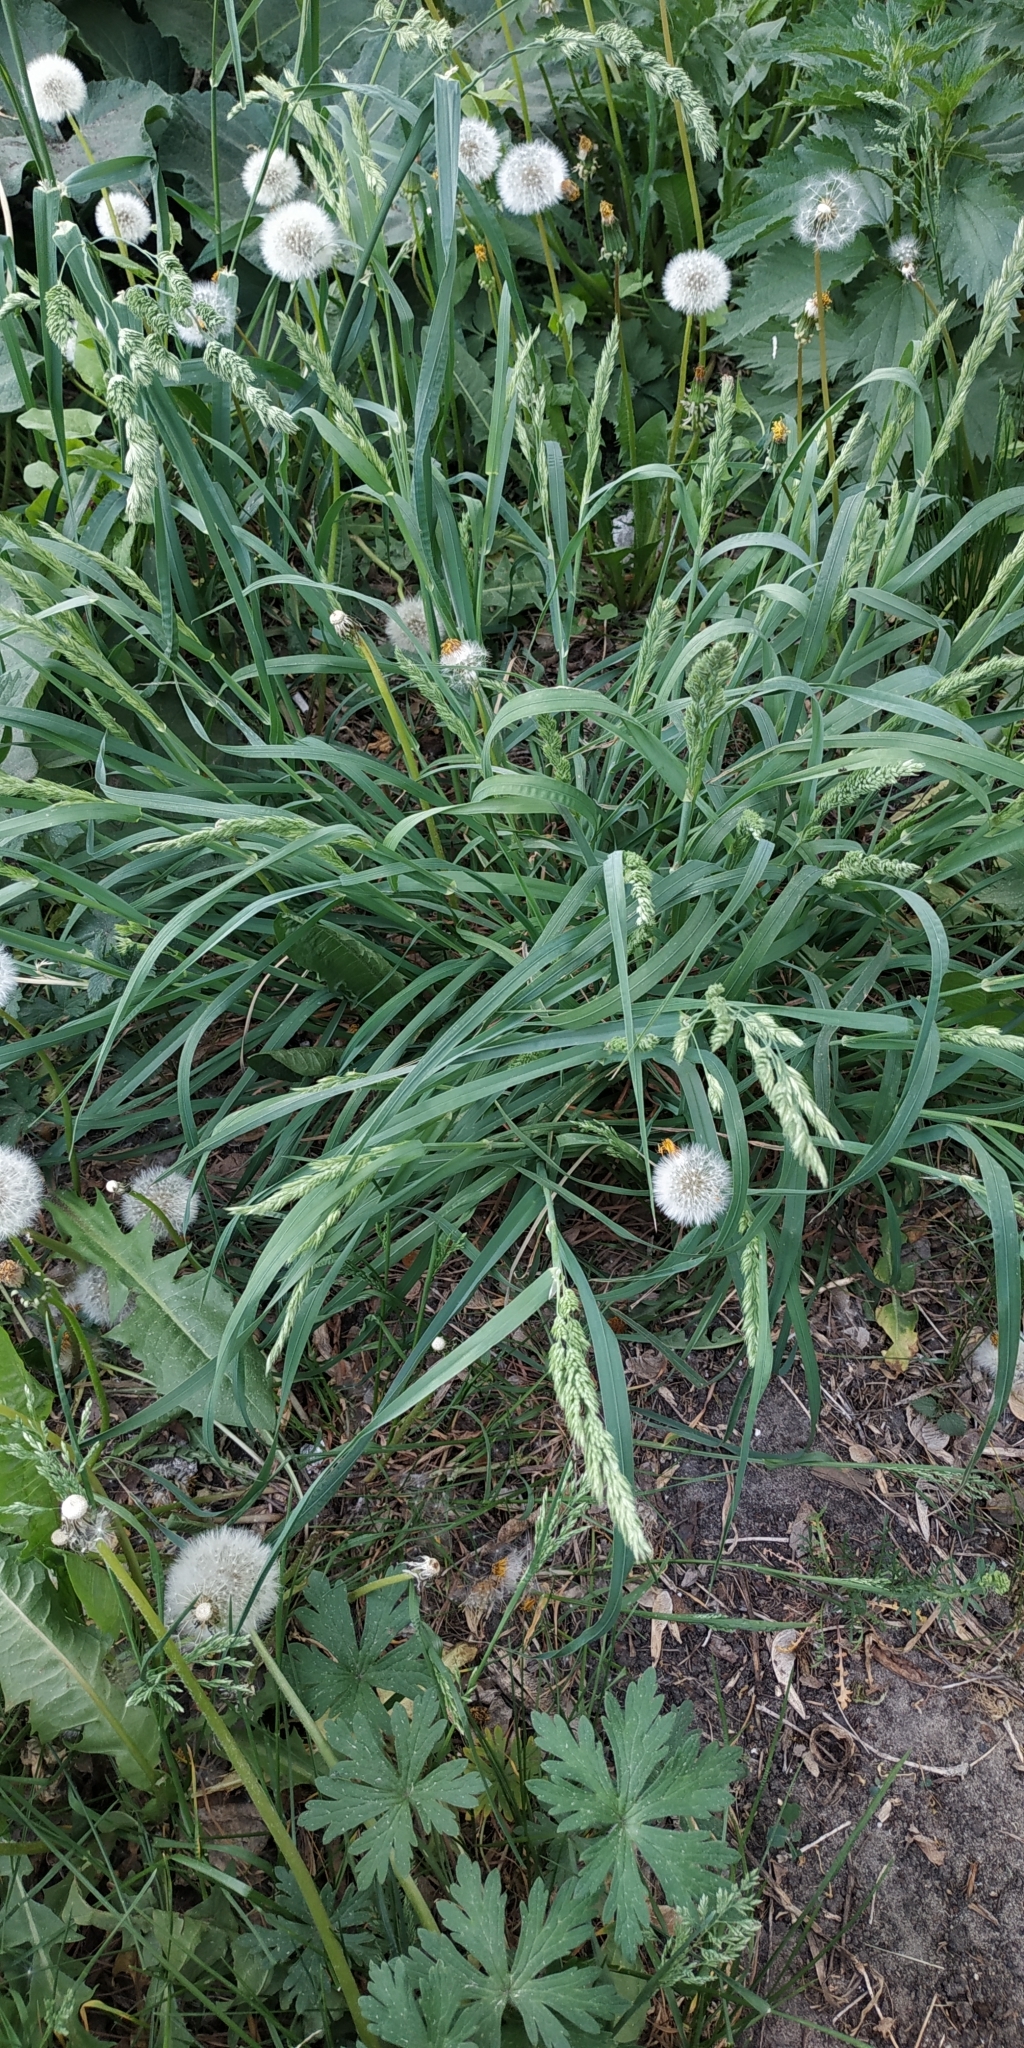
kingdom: Plantae
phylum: Tracheophyta
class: Liliopsida
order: Poales
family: Poaceae
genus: Dactylis
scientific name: Dactylis glomerata
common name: Orchardgrass
